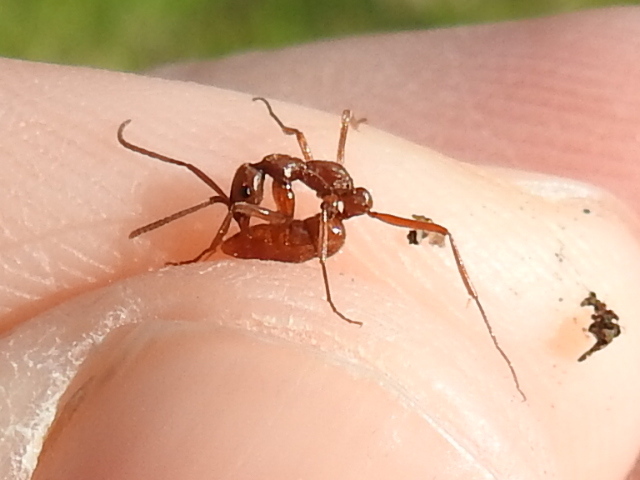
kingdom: Animalia
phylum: Arthropoda
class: Insecta
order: Hymenoptera
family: Formicidae
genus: Leptogenys
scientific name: Leptogenys elongata
